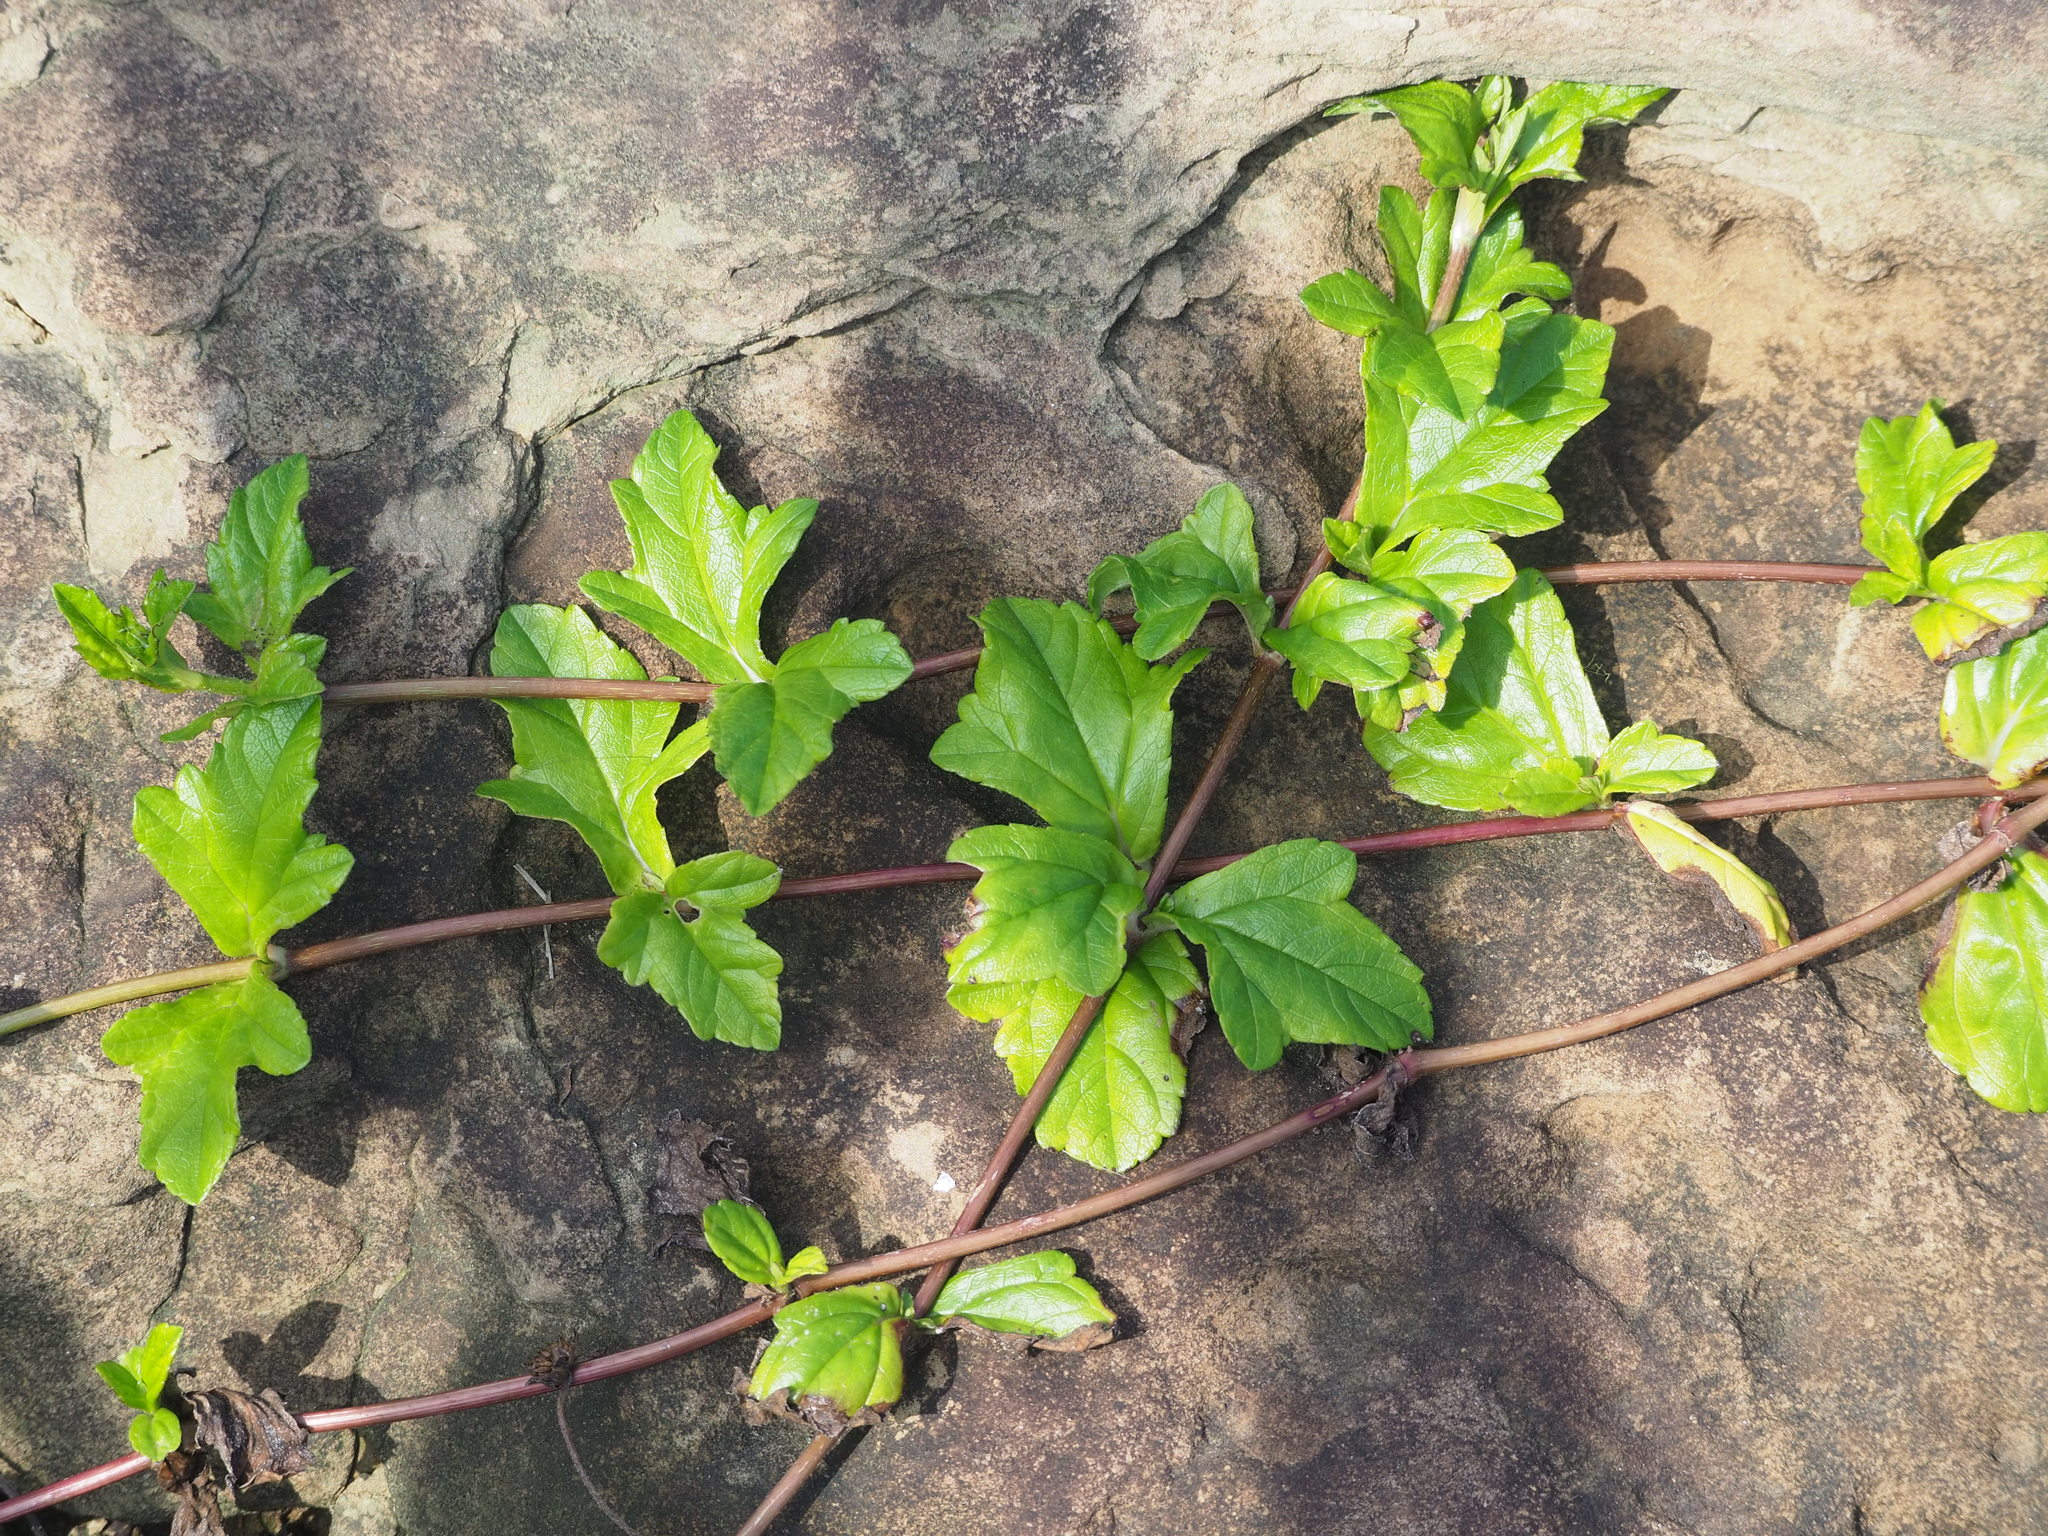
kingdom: Plantae
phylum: Tracheophyta
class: Magnoliopsida
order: Asterales
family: Asteraceae
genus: Sphagneticola
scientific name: Sphagneticola trilobata
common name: Bay biscayne creeping-oxeye
